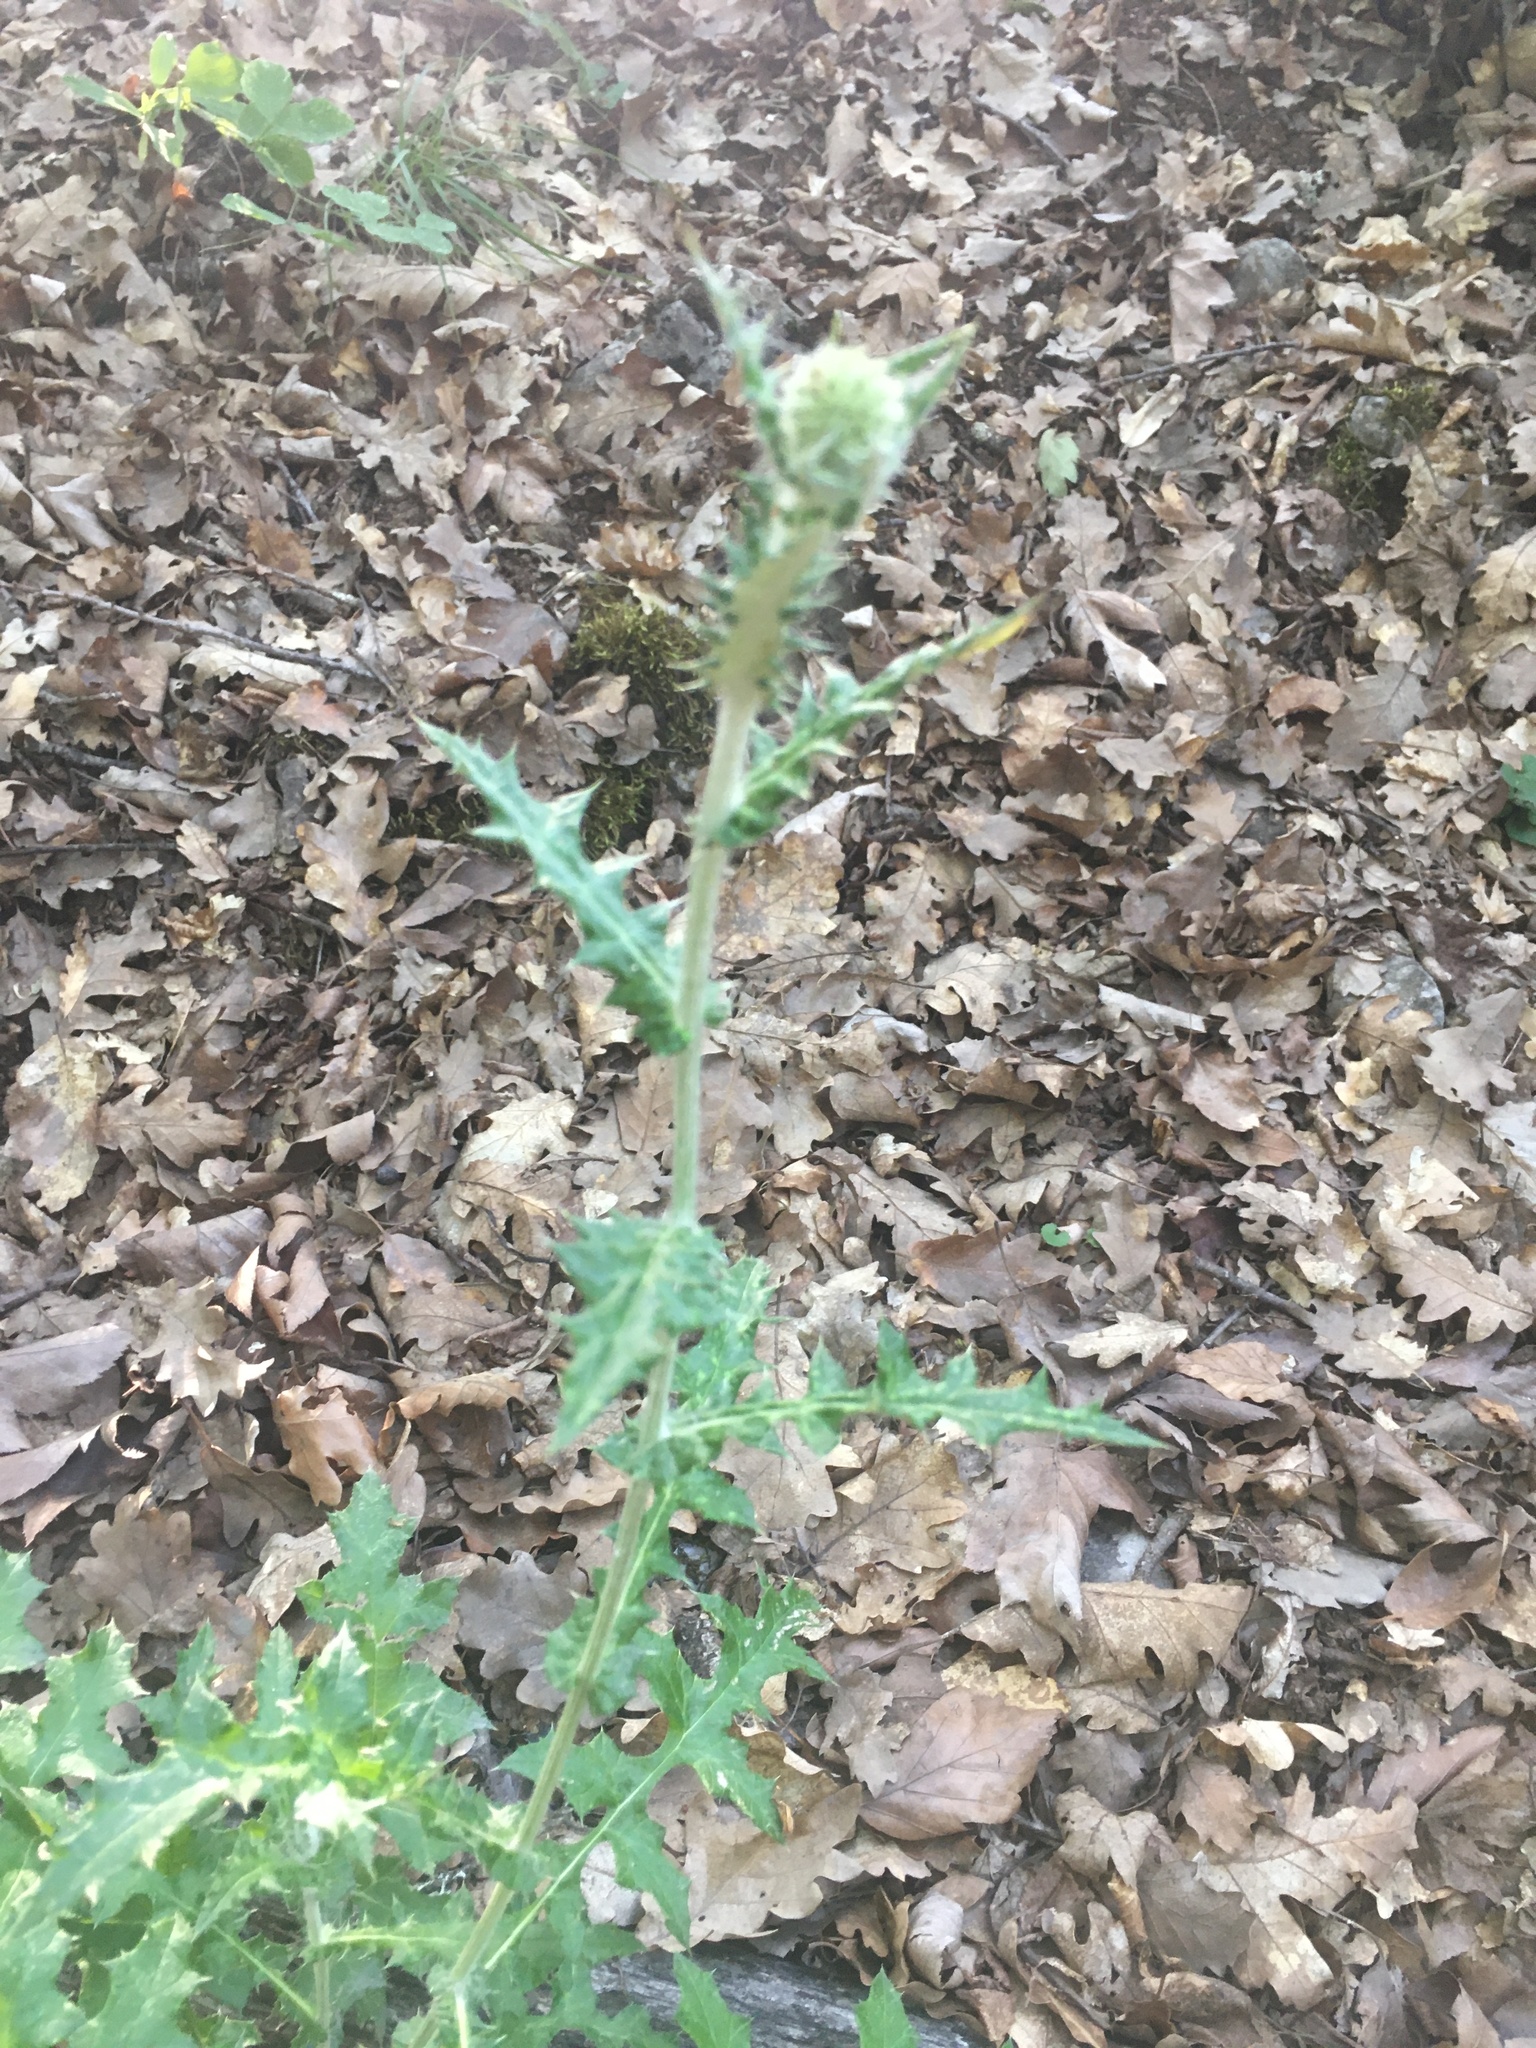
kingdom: Plantae
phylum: Tracheophyta
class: Magnoliopsida
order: Asterales
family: Asteraceae
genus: Echinops
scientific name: Echinops armatus
